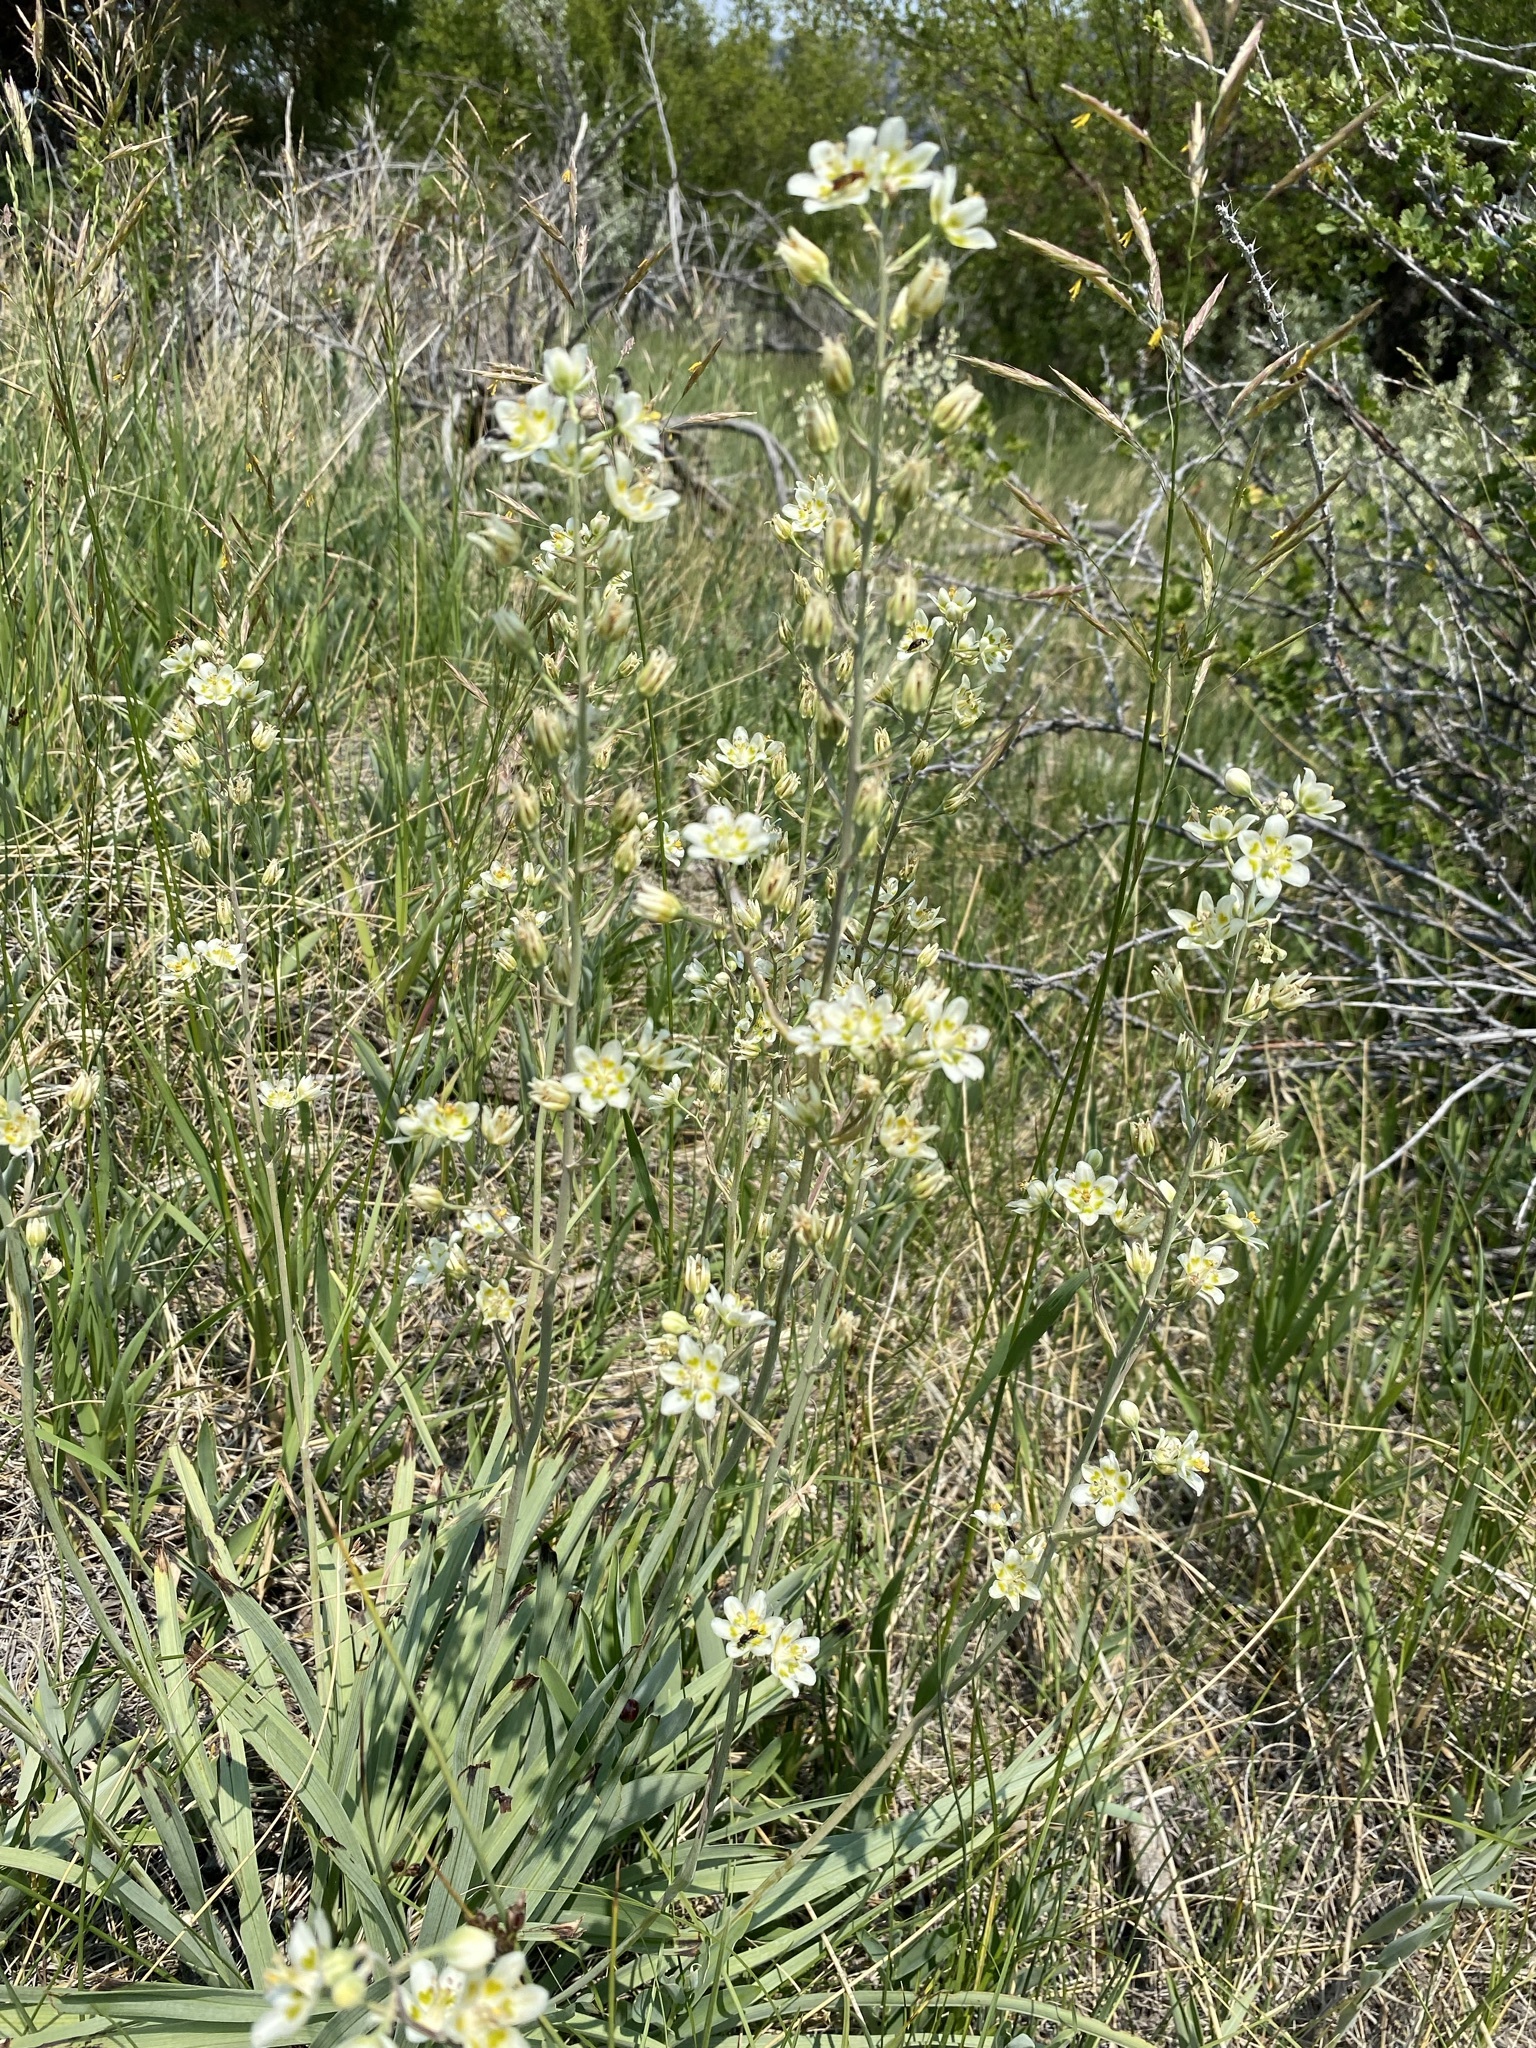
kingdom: Plantae
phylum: Tracheophyta
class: Liliopsida
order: Liliales
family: Melanthiaceae
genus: Anticlea
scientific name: Anticlea elegans
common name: Mountain death camas
